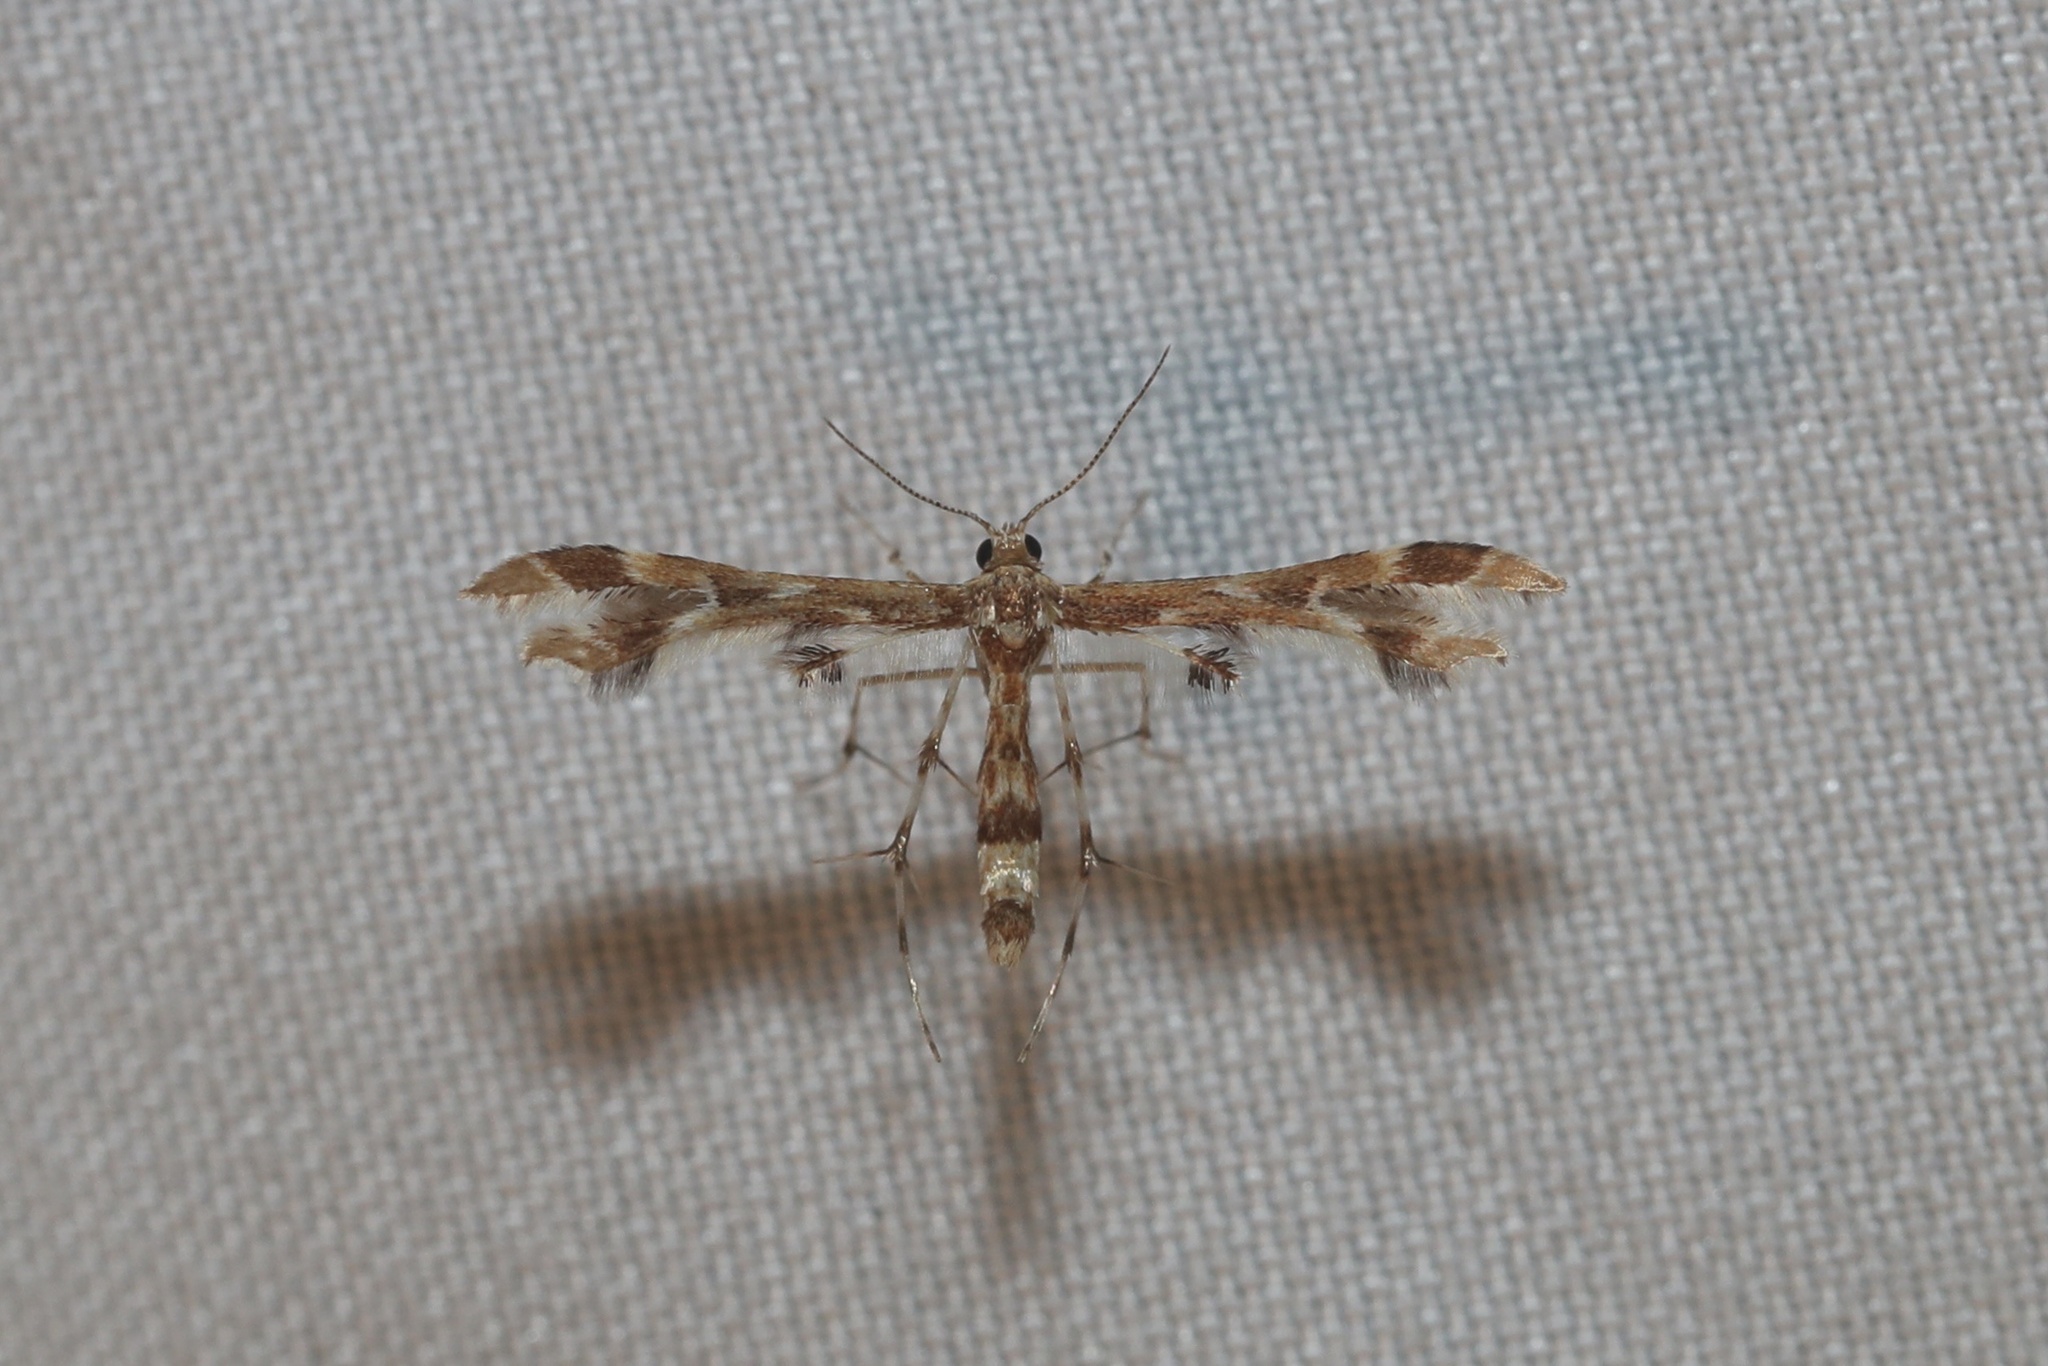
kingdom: Animalia
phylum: Arthropoda
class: Insecta
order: Lepidoptera
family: Pterophoridae
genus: Sphenarches
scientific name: Sphenarches ontario
